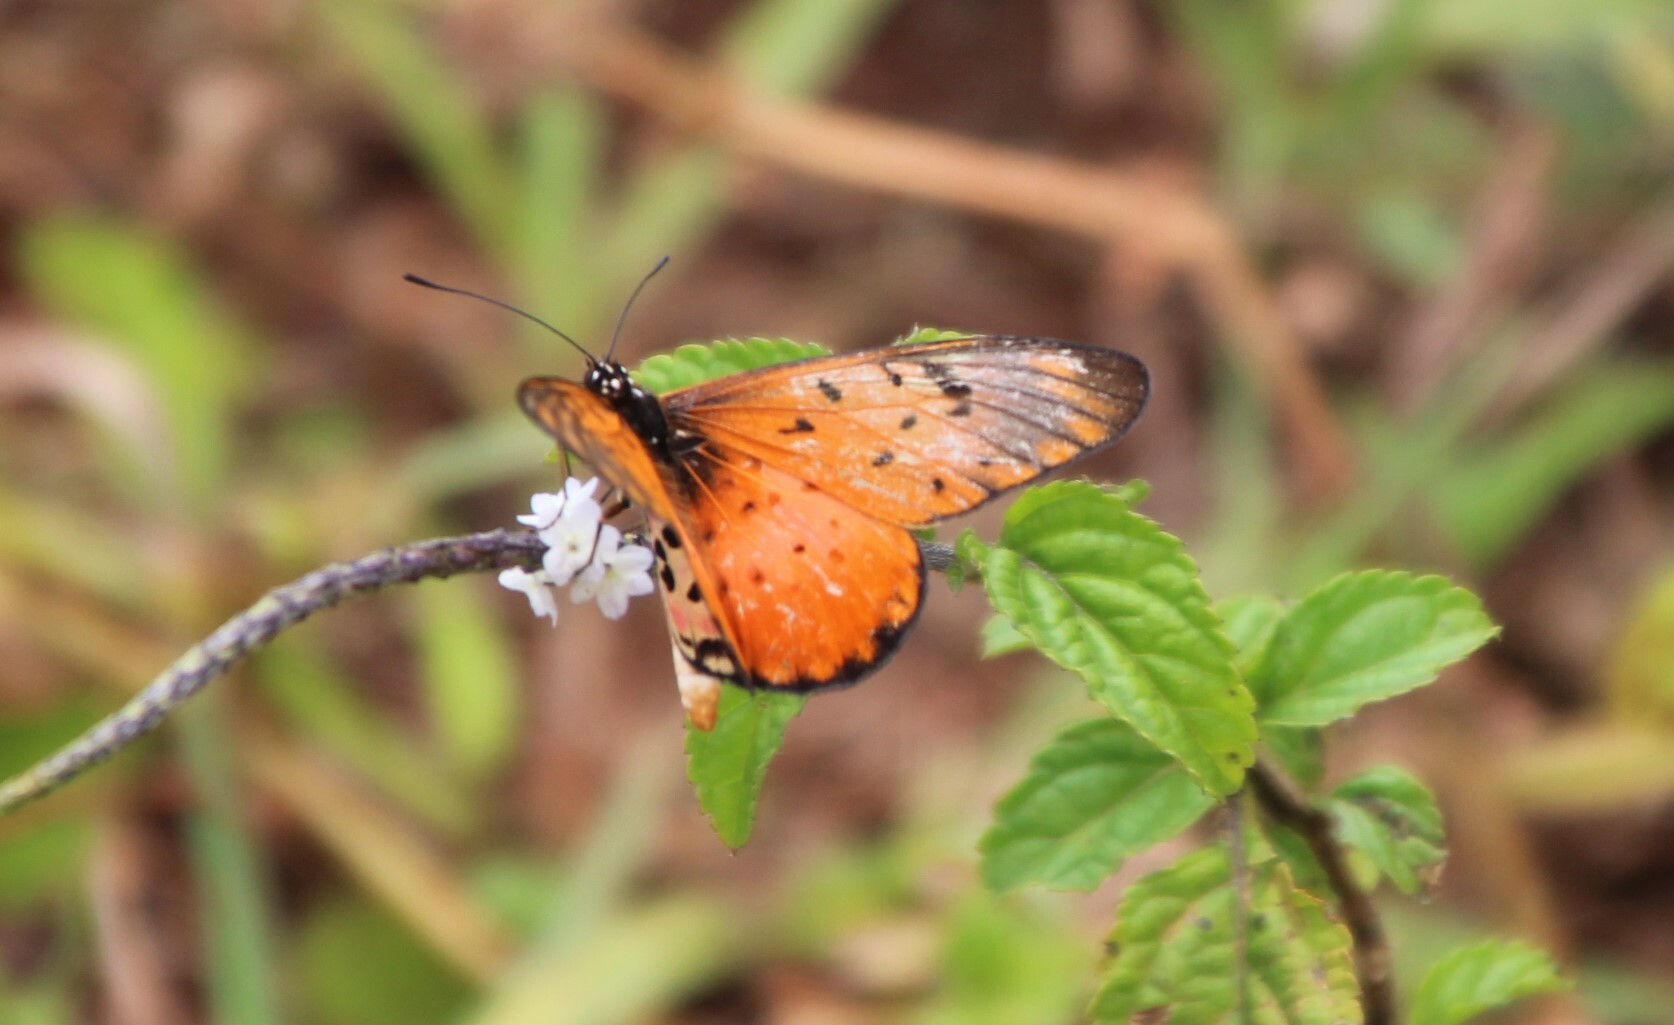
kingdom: Animalia
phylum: Arthropoda
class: Insecta
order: Lepidoptera
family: Nymphalidae
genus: Stephenia
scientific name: Stephenia
